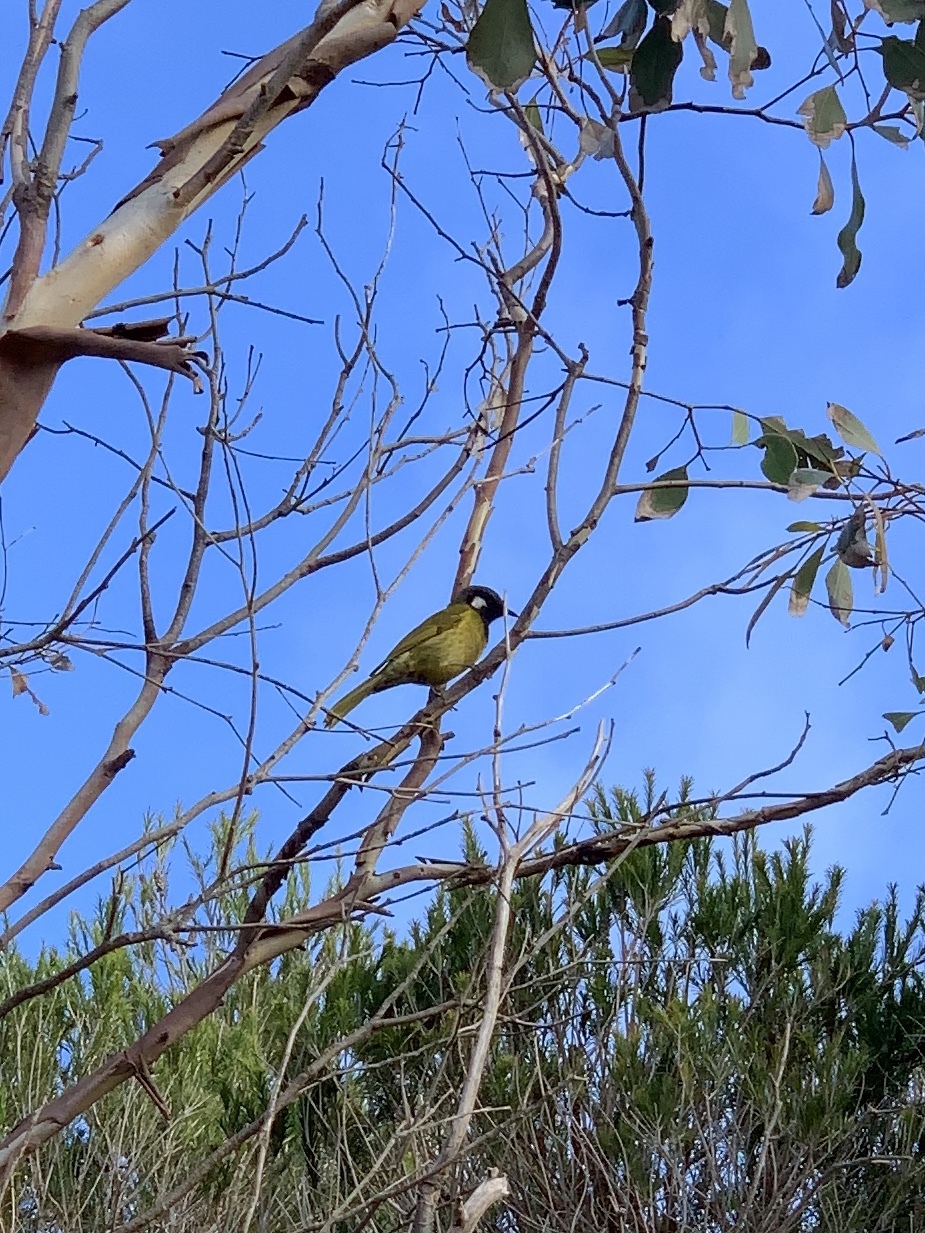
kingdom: Animalia
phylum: Chordata
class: Aves
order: Passeriformes
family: Meliphagidae
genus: Nesoptilotis
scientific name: Nesoptilotis leucotis
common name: White-eared honeyeater
